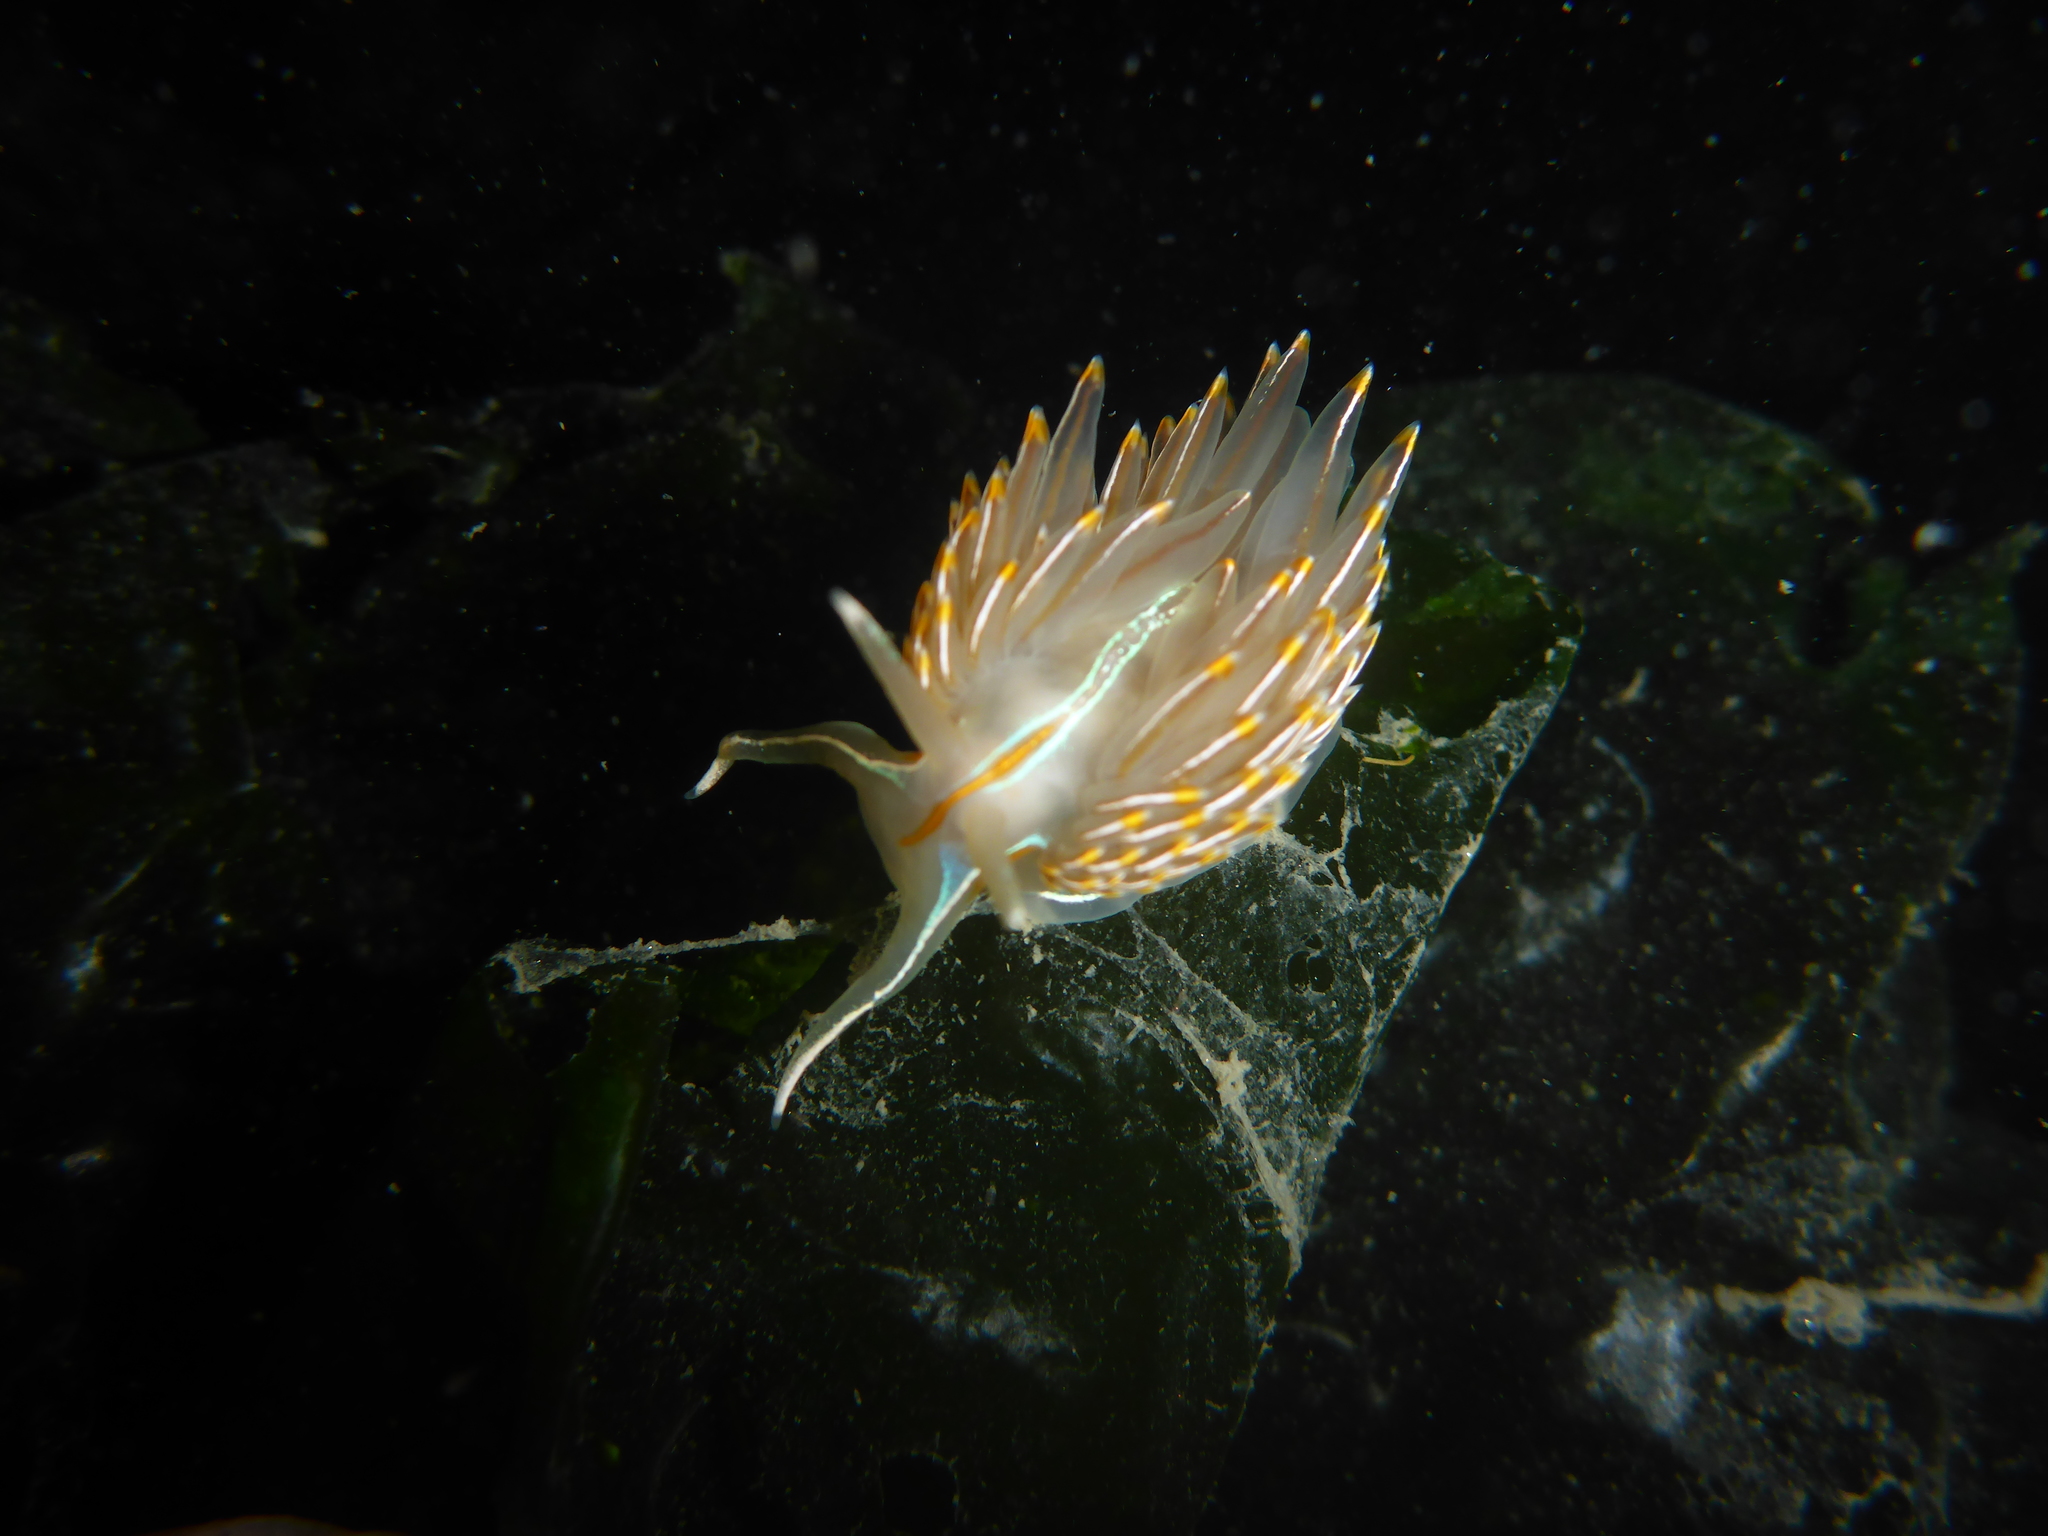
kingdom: Animalia
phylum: Mollusca
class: Gastropoda
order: Nudibranchia
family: Myrrhinidae
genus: Hermissenda
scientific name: Hermissenda crassicornis
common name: Hermissenda
